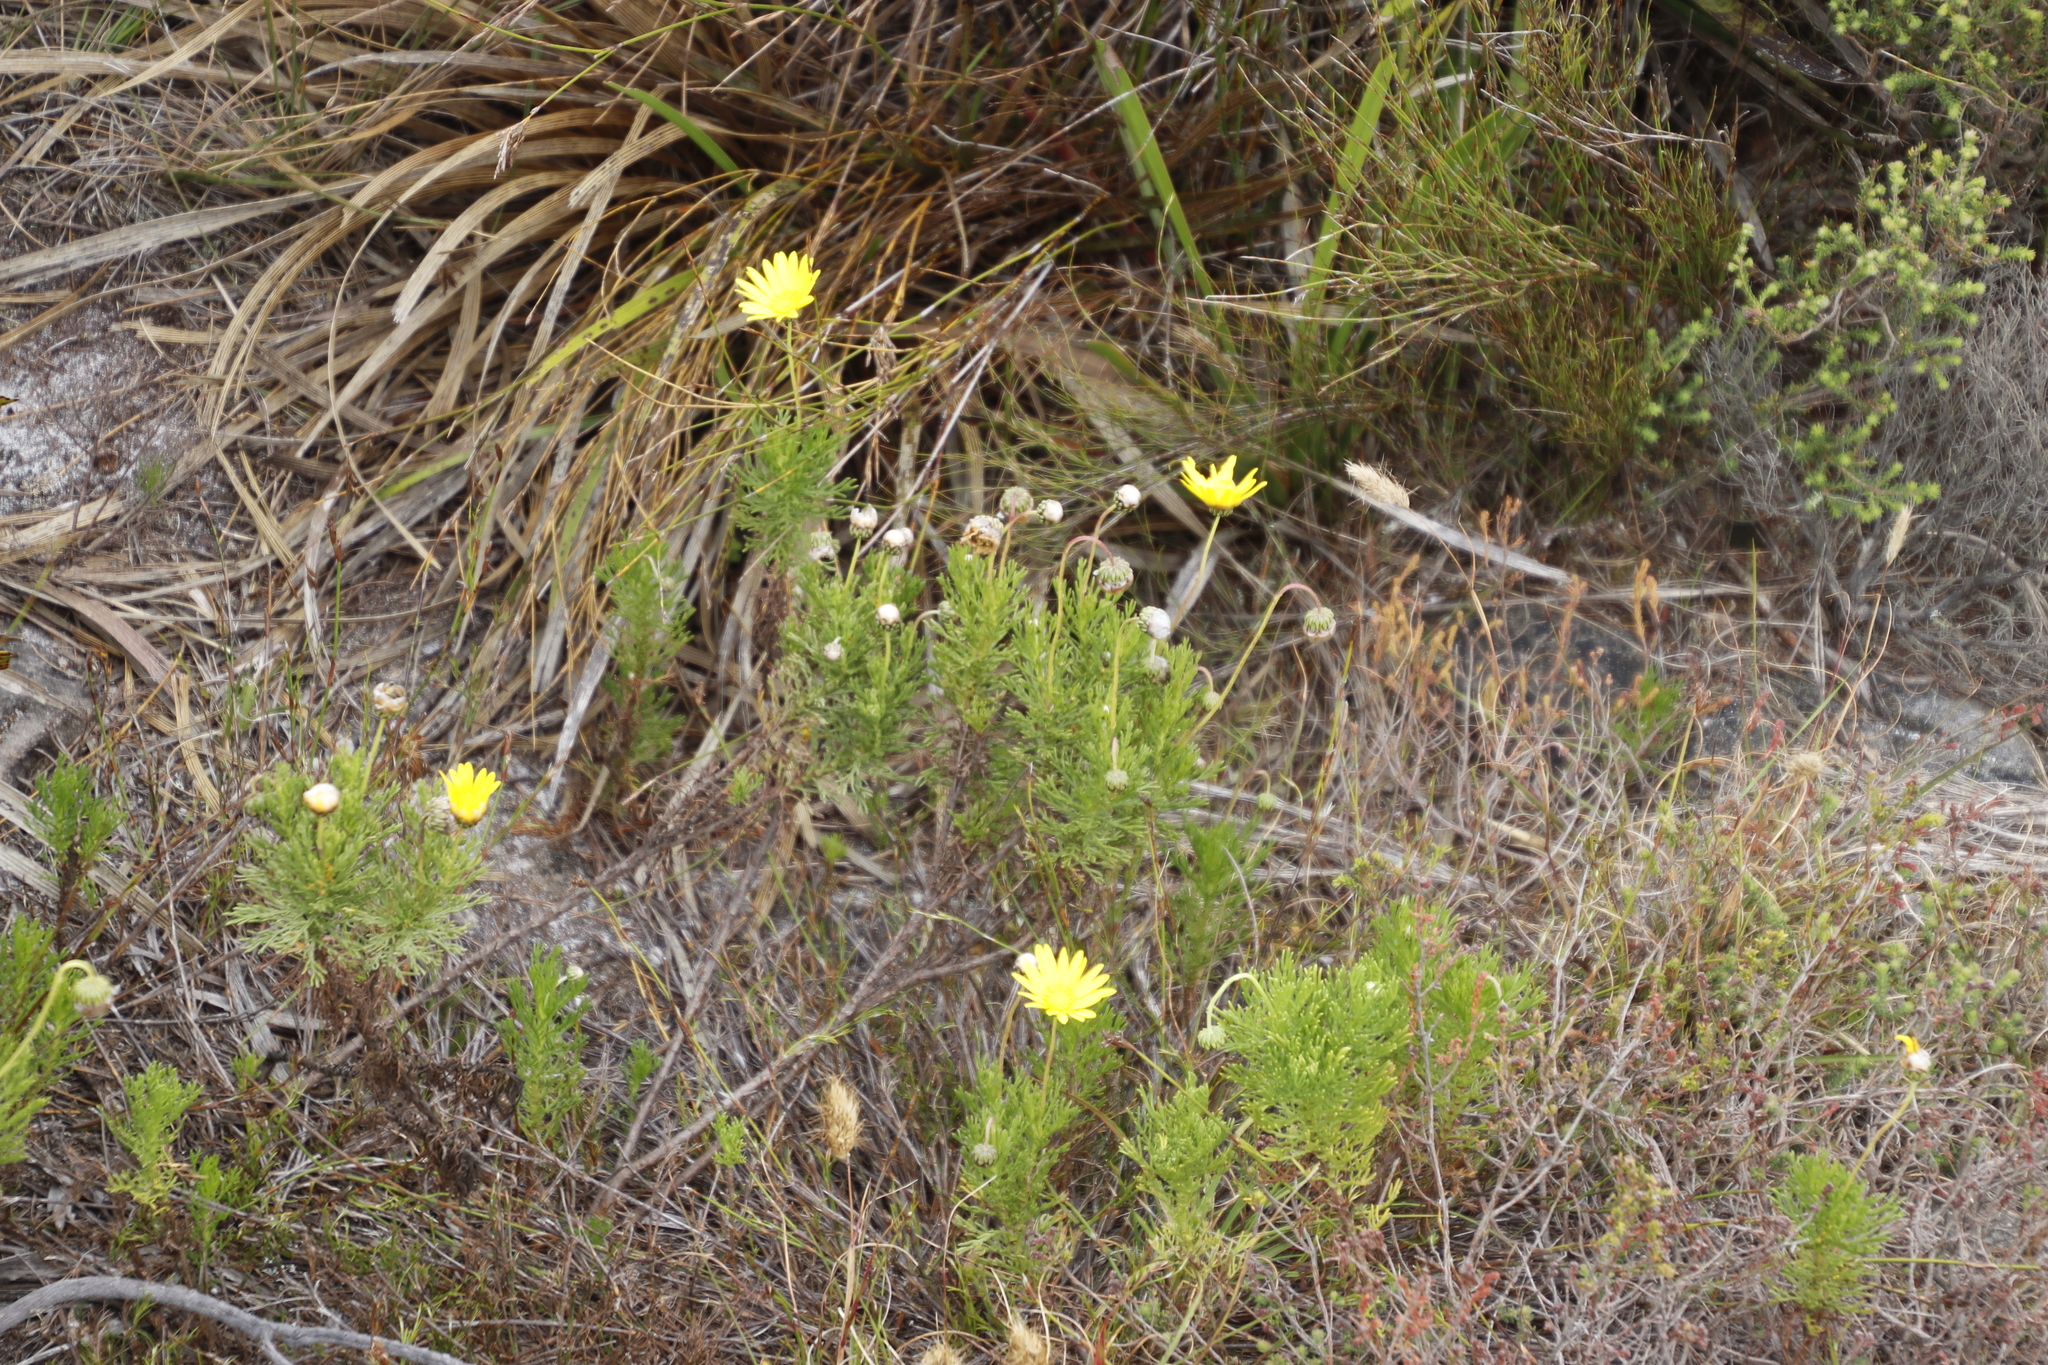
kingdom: Plantae
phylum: Tracheophyta
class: Magnoliopsida
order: Asterales
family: Asteraceae
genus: Euryops
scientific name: Euryops abrotanifolius
